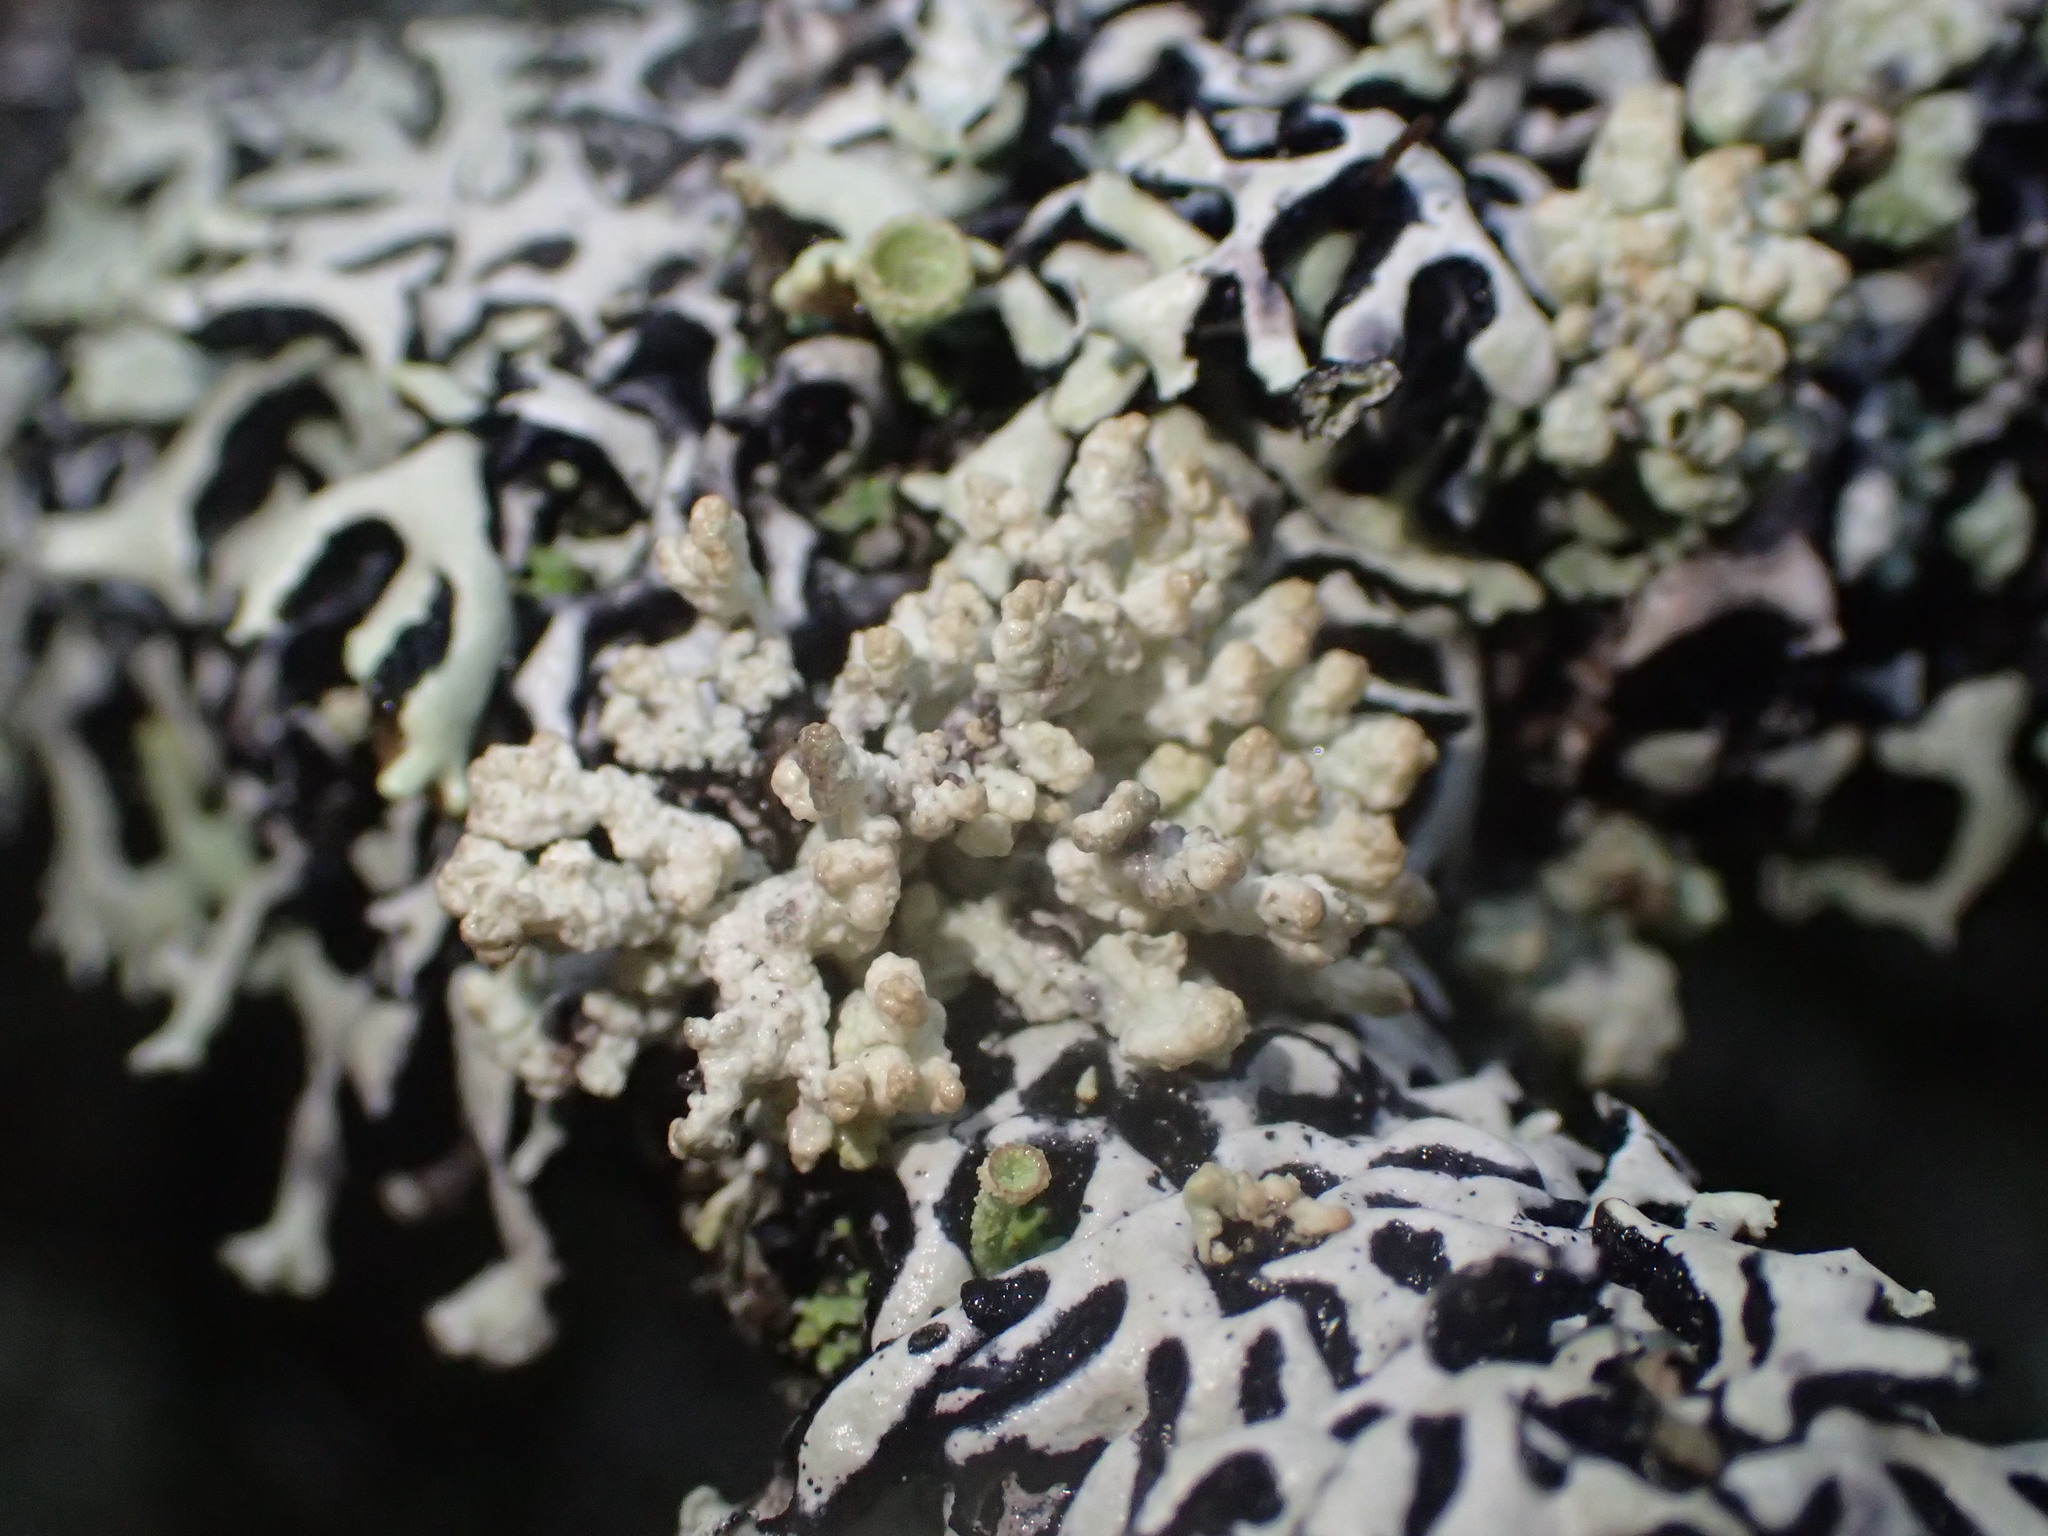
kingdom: Fungi
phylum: Ascomycota
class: Lecanoromycetes
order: Lecanorales
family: Parmeliaceae
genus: Hypogymnia
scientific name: Hypogymnia krogiae
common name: Freckled tube lichen
